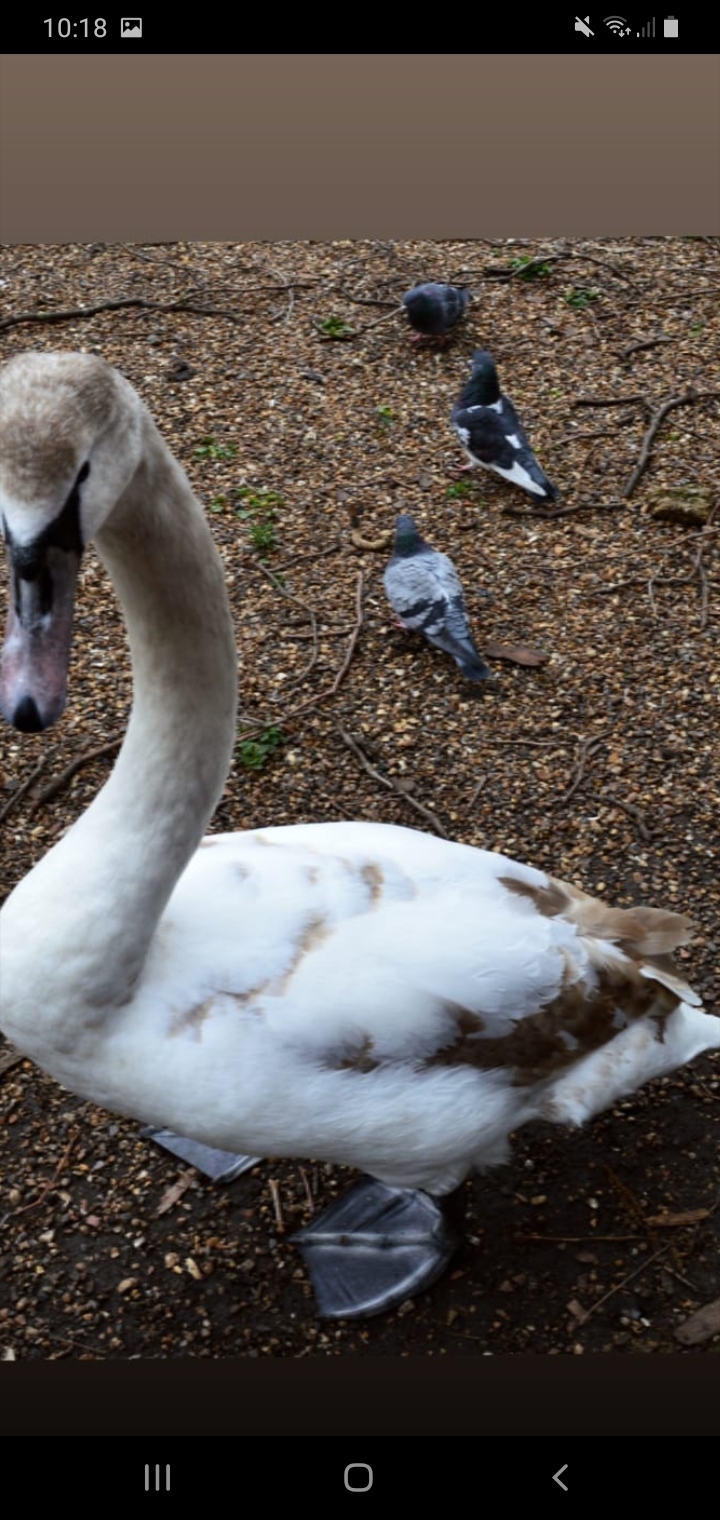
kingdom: Animalia
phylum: Chordata
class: Aves
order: Anseriformes
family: Anatidae
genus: Cygnus
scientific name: Cygnus olor
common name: Mute swan
